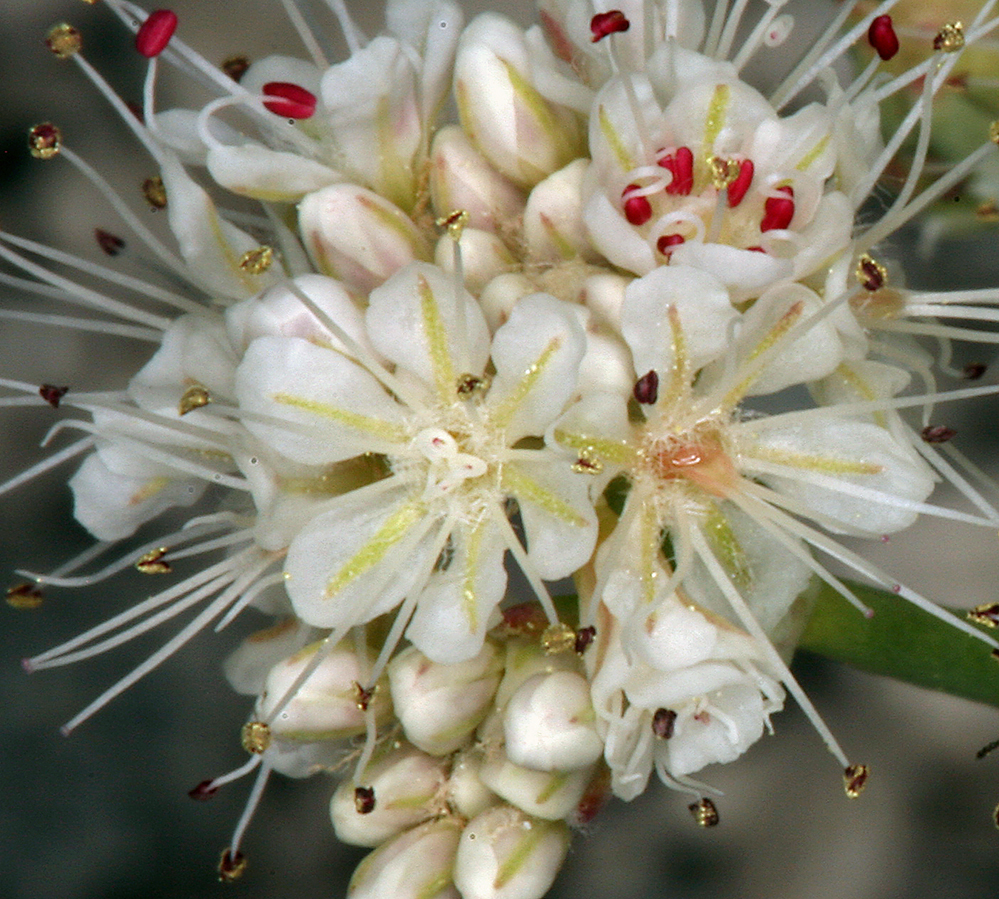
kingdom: Plantae
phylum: Tracheophyta
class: Magnoliopsida
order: Caryophyllales
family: Polygonaceae
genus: Eriogonum
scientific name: Eriogonum nudum
